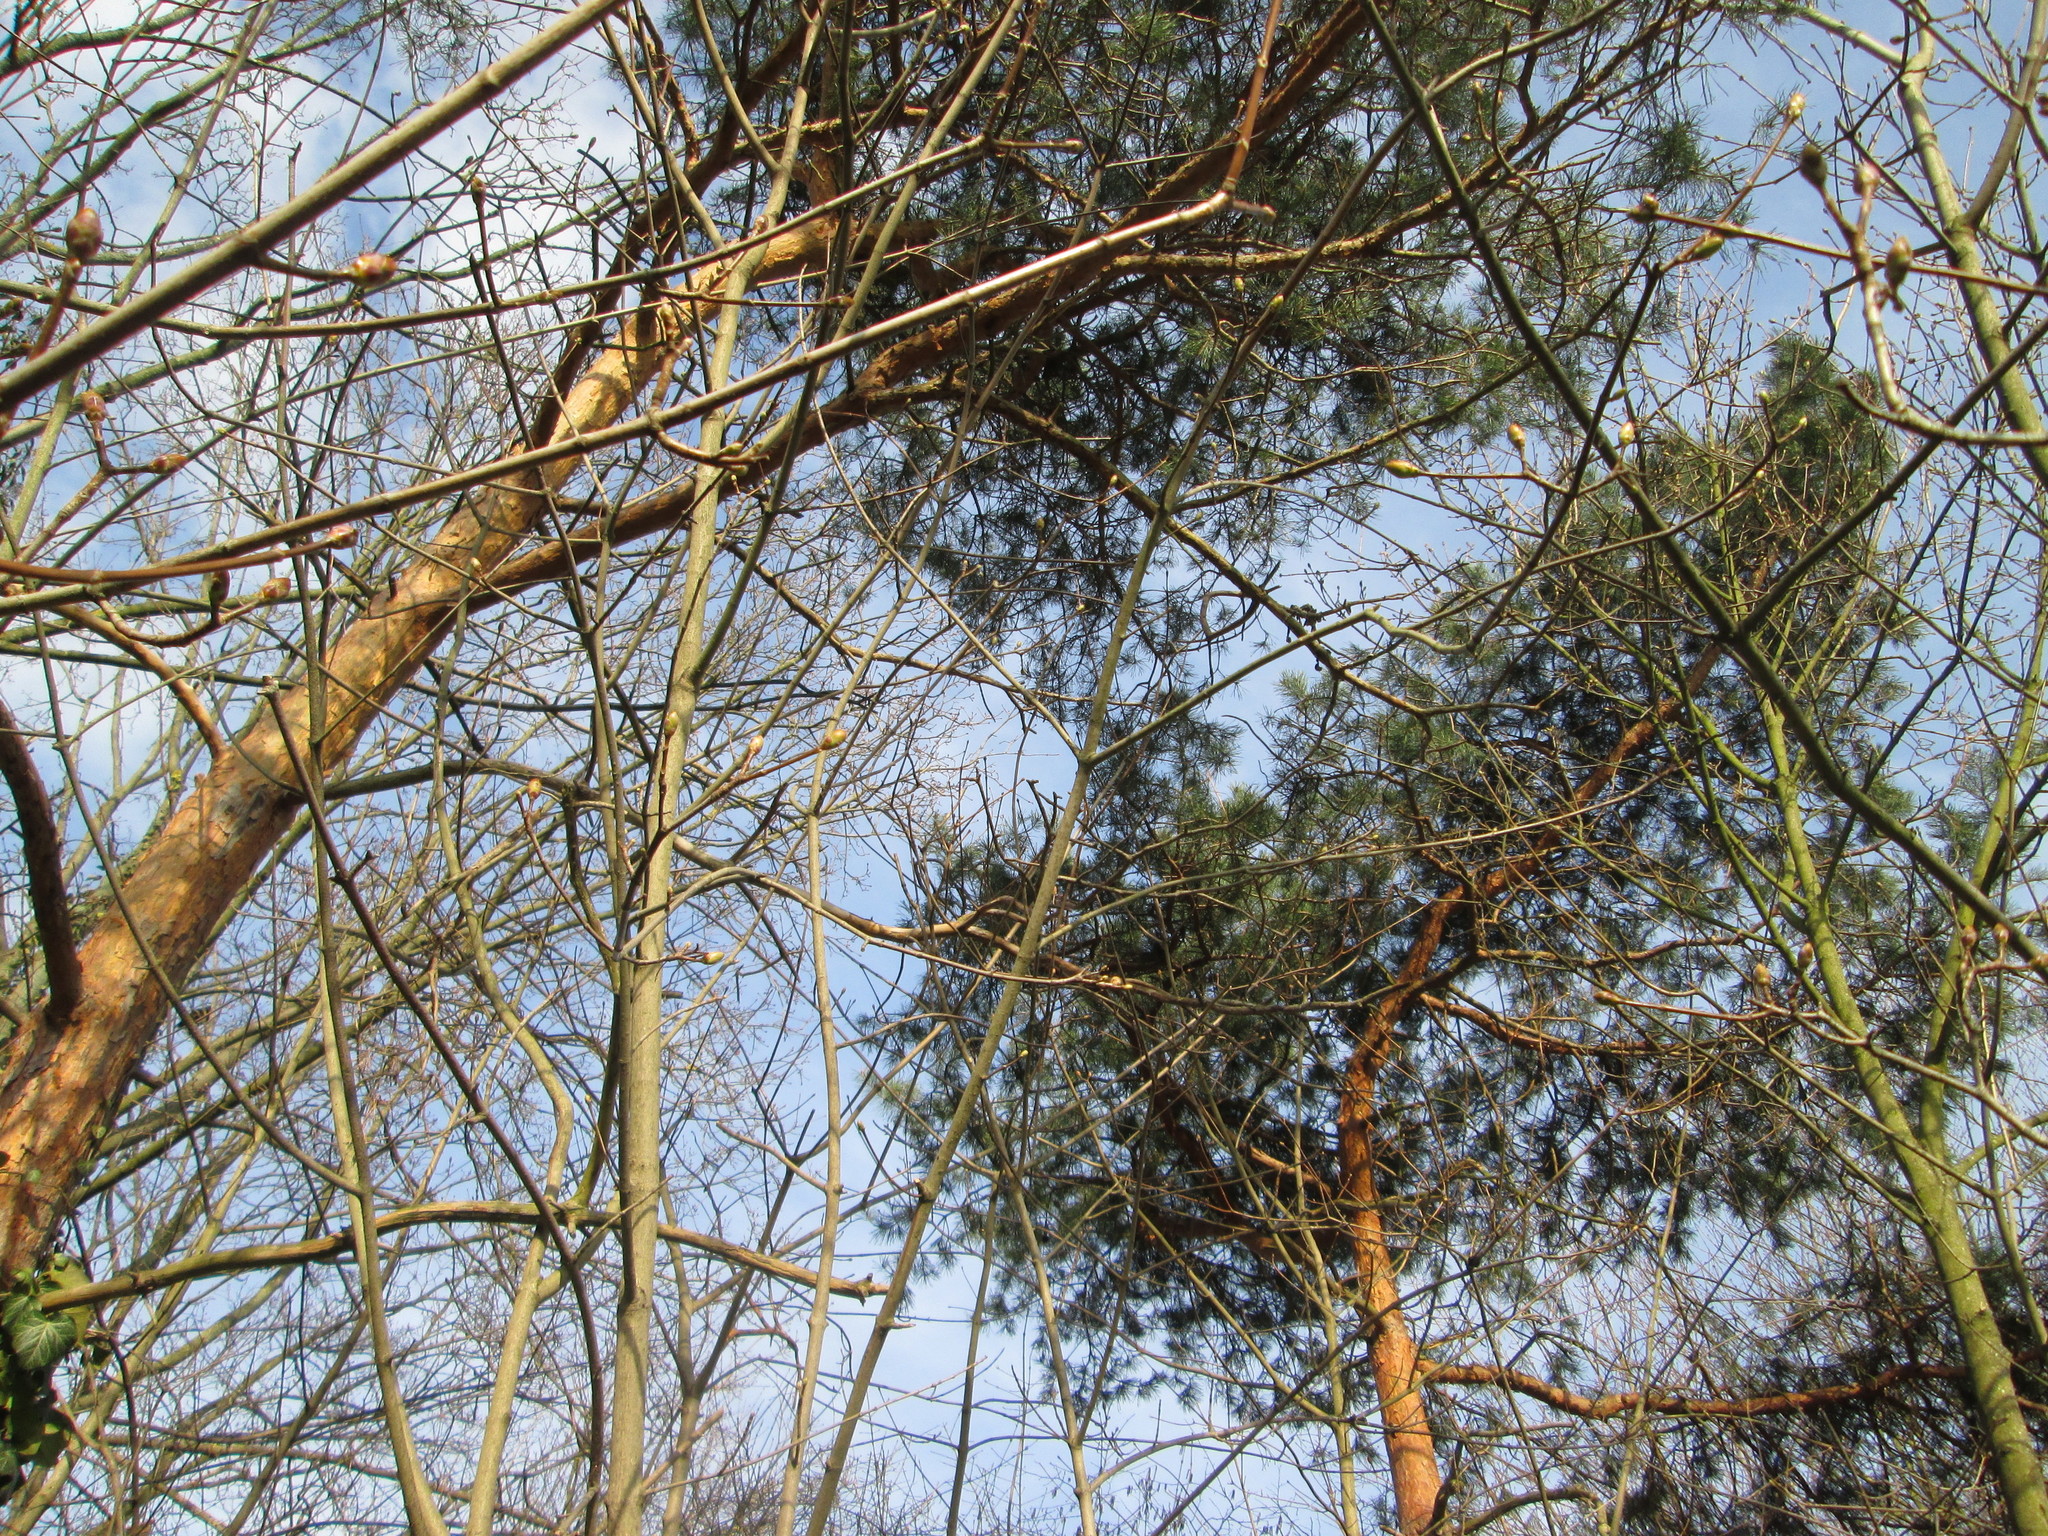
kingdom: Plantae
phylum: Tracheophyta
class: Pinopsida
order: Pinales
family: Pinaceae
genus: Pinus
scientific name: Pinus sylvestris
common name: Scots pine
